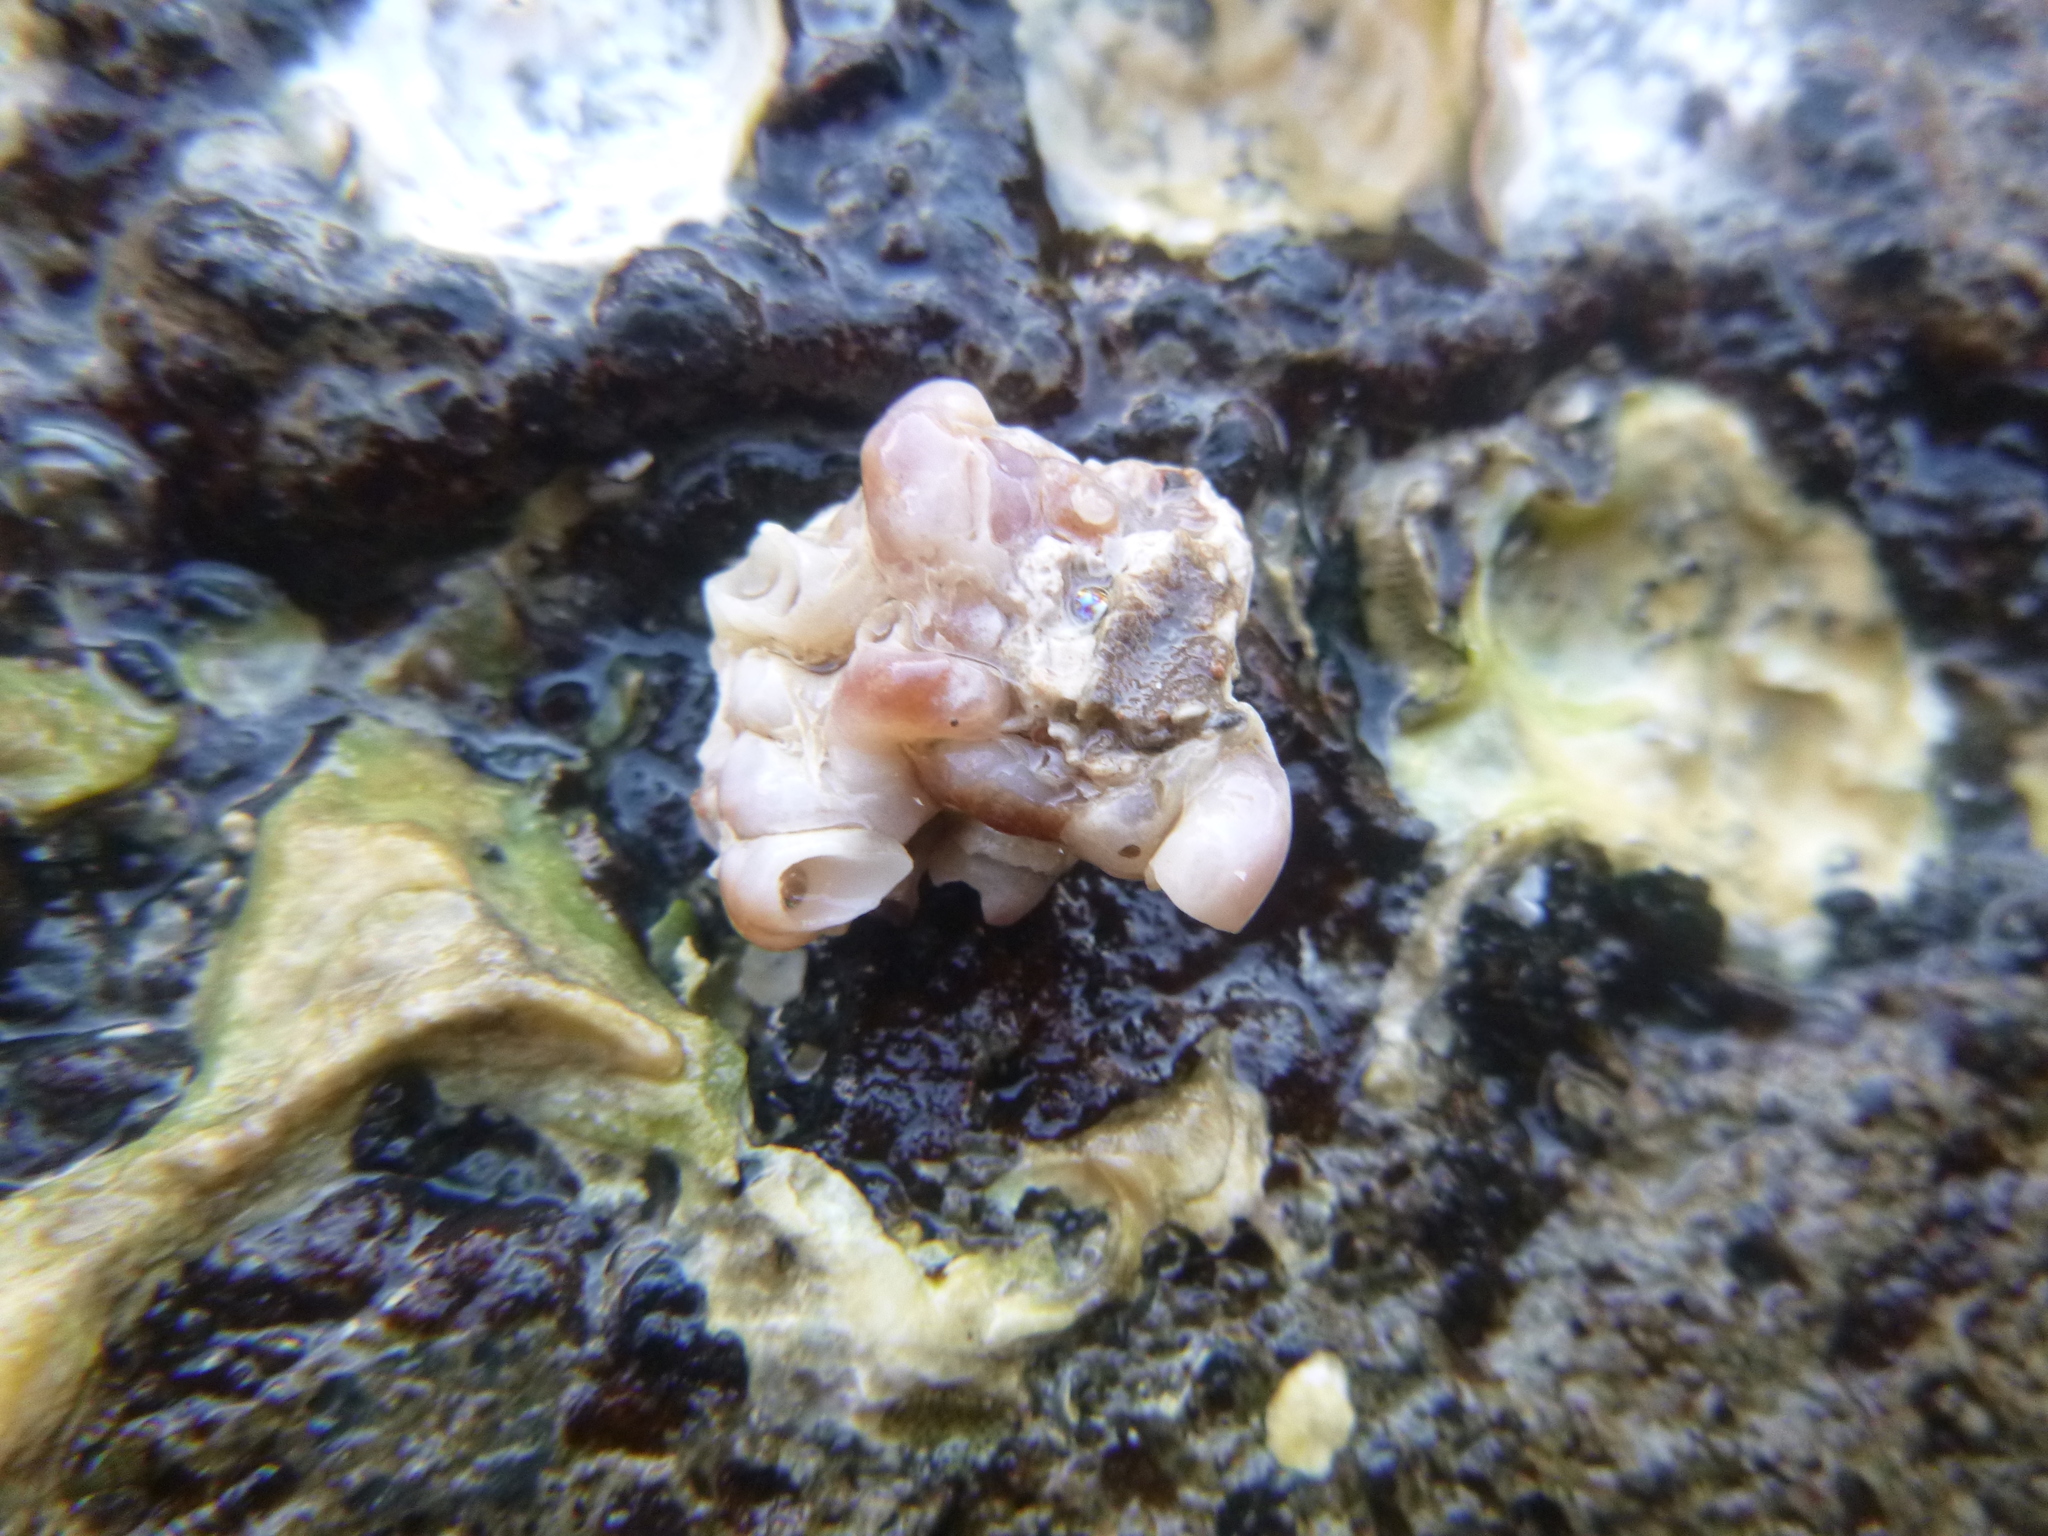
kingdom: Animalia
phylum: Mollusca
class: Gastropoda
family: Siliquariidae
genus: Stephopoma
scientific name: Stephopoma roseum
